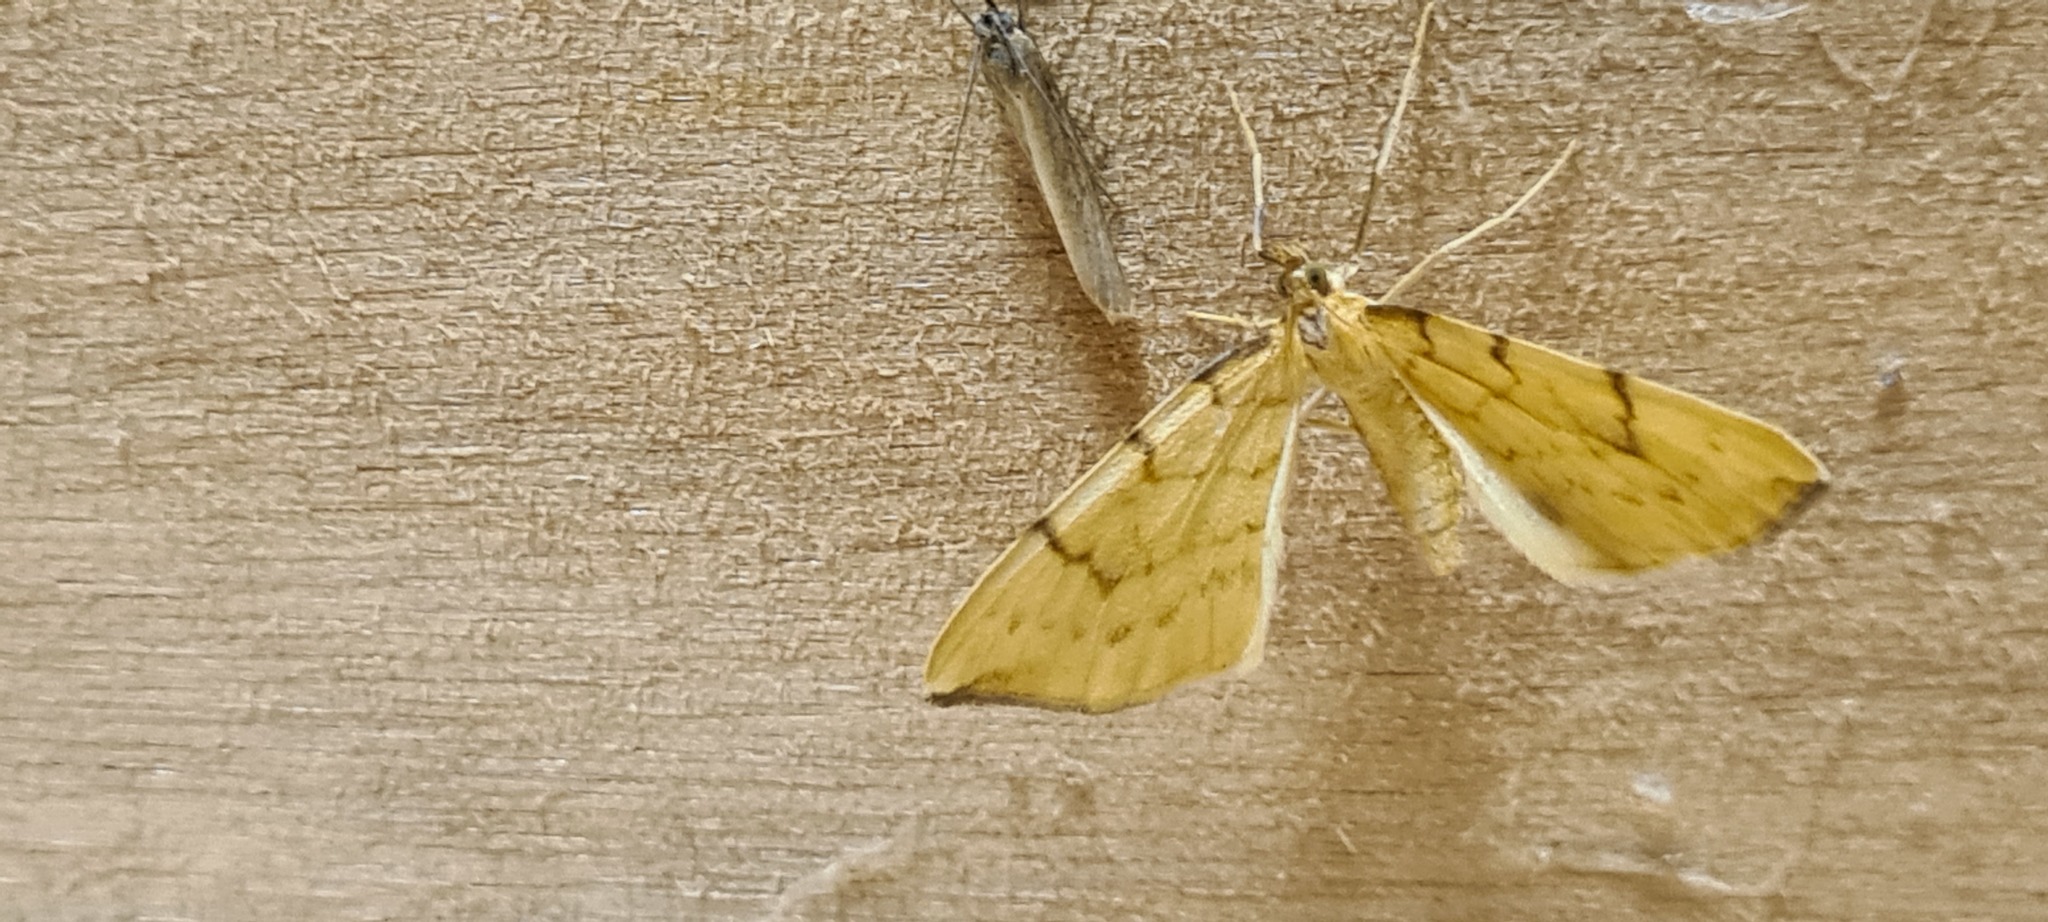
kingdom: Animalia
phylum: Arthropoda
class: Insecta
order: Lepidoptera
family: Geometridae
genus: Eulithis
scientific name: Eulithis pyraliata
